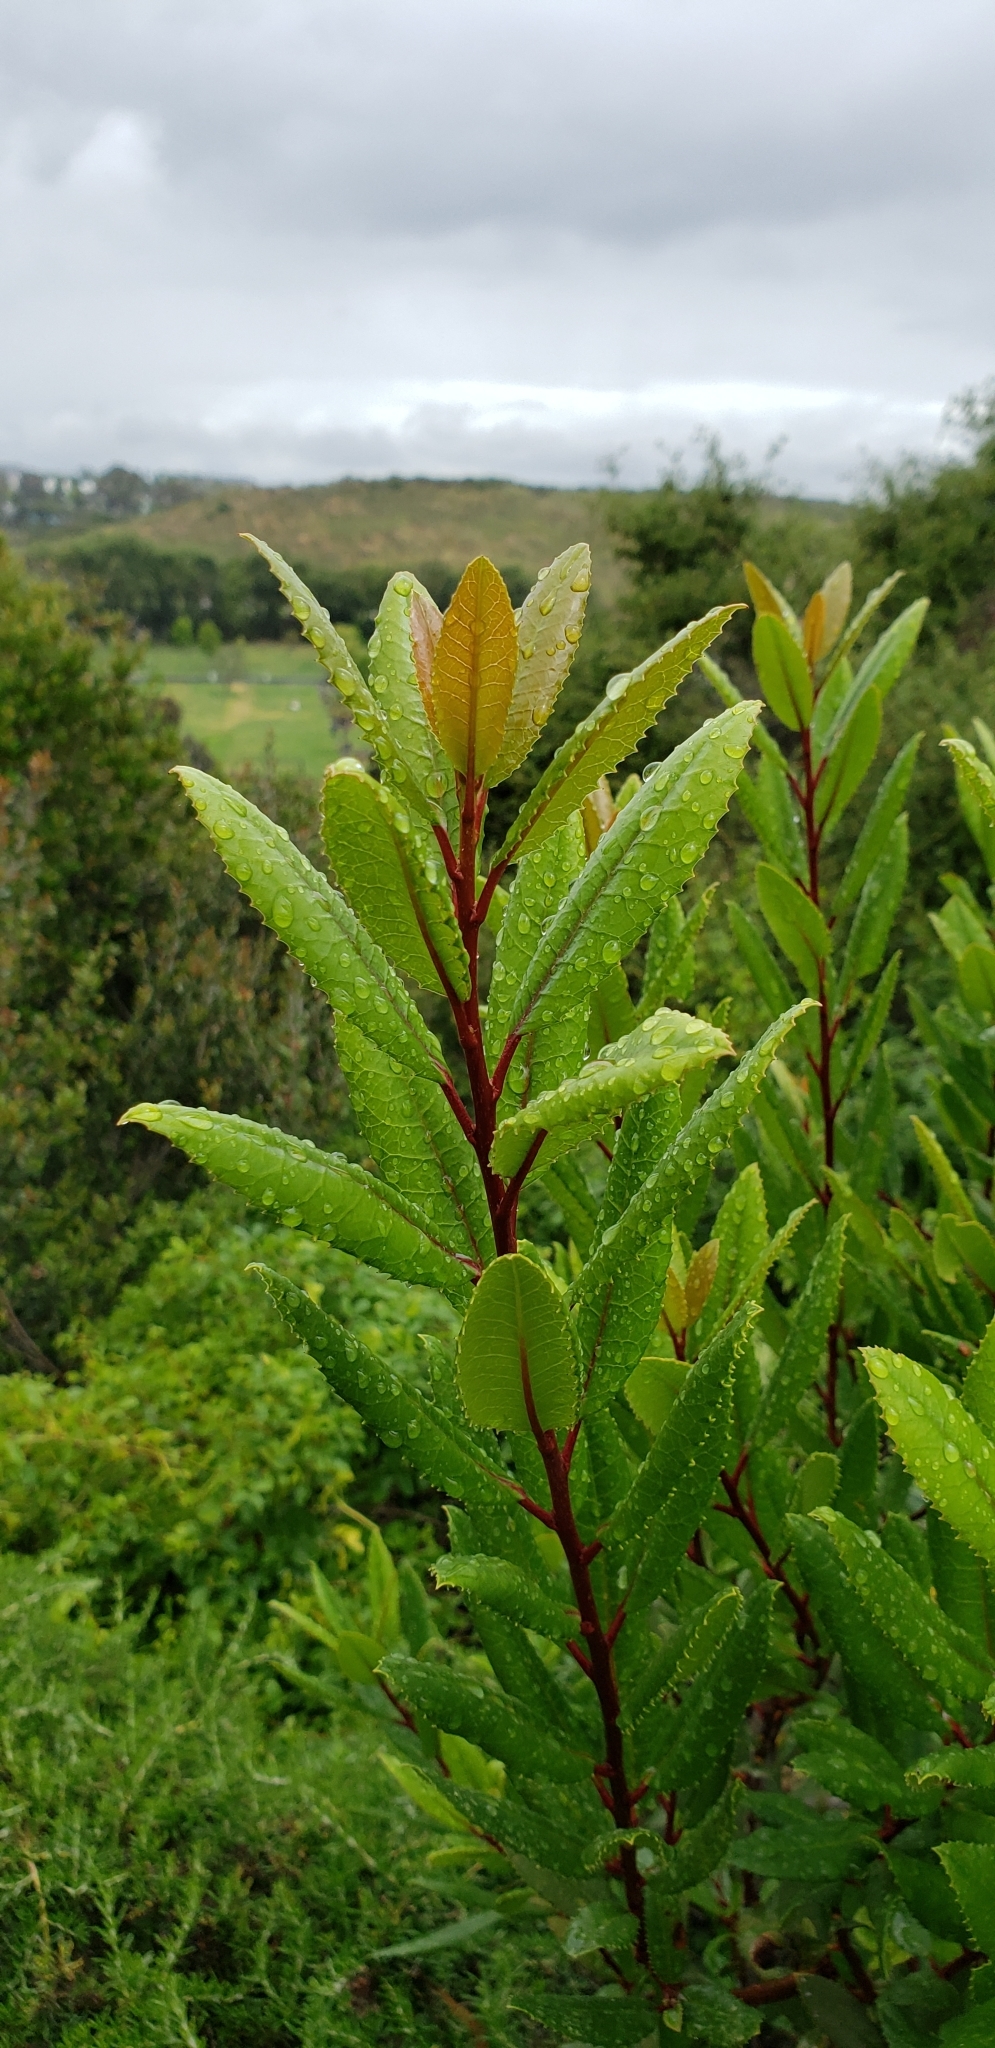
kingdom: Plantae
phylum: Tracheophyta
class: Magnoliopsida
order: Rosales
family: Rosaceae
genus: Heteromeles
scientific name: Heteromeles arbutifolia
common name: California-holly
